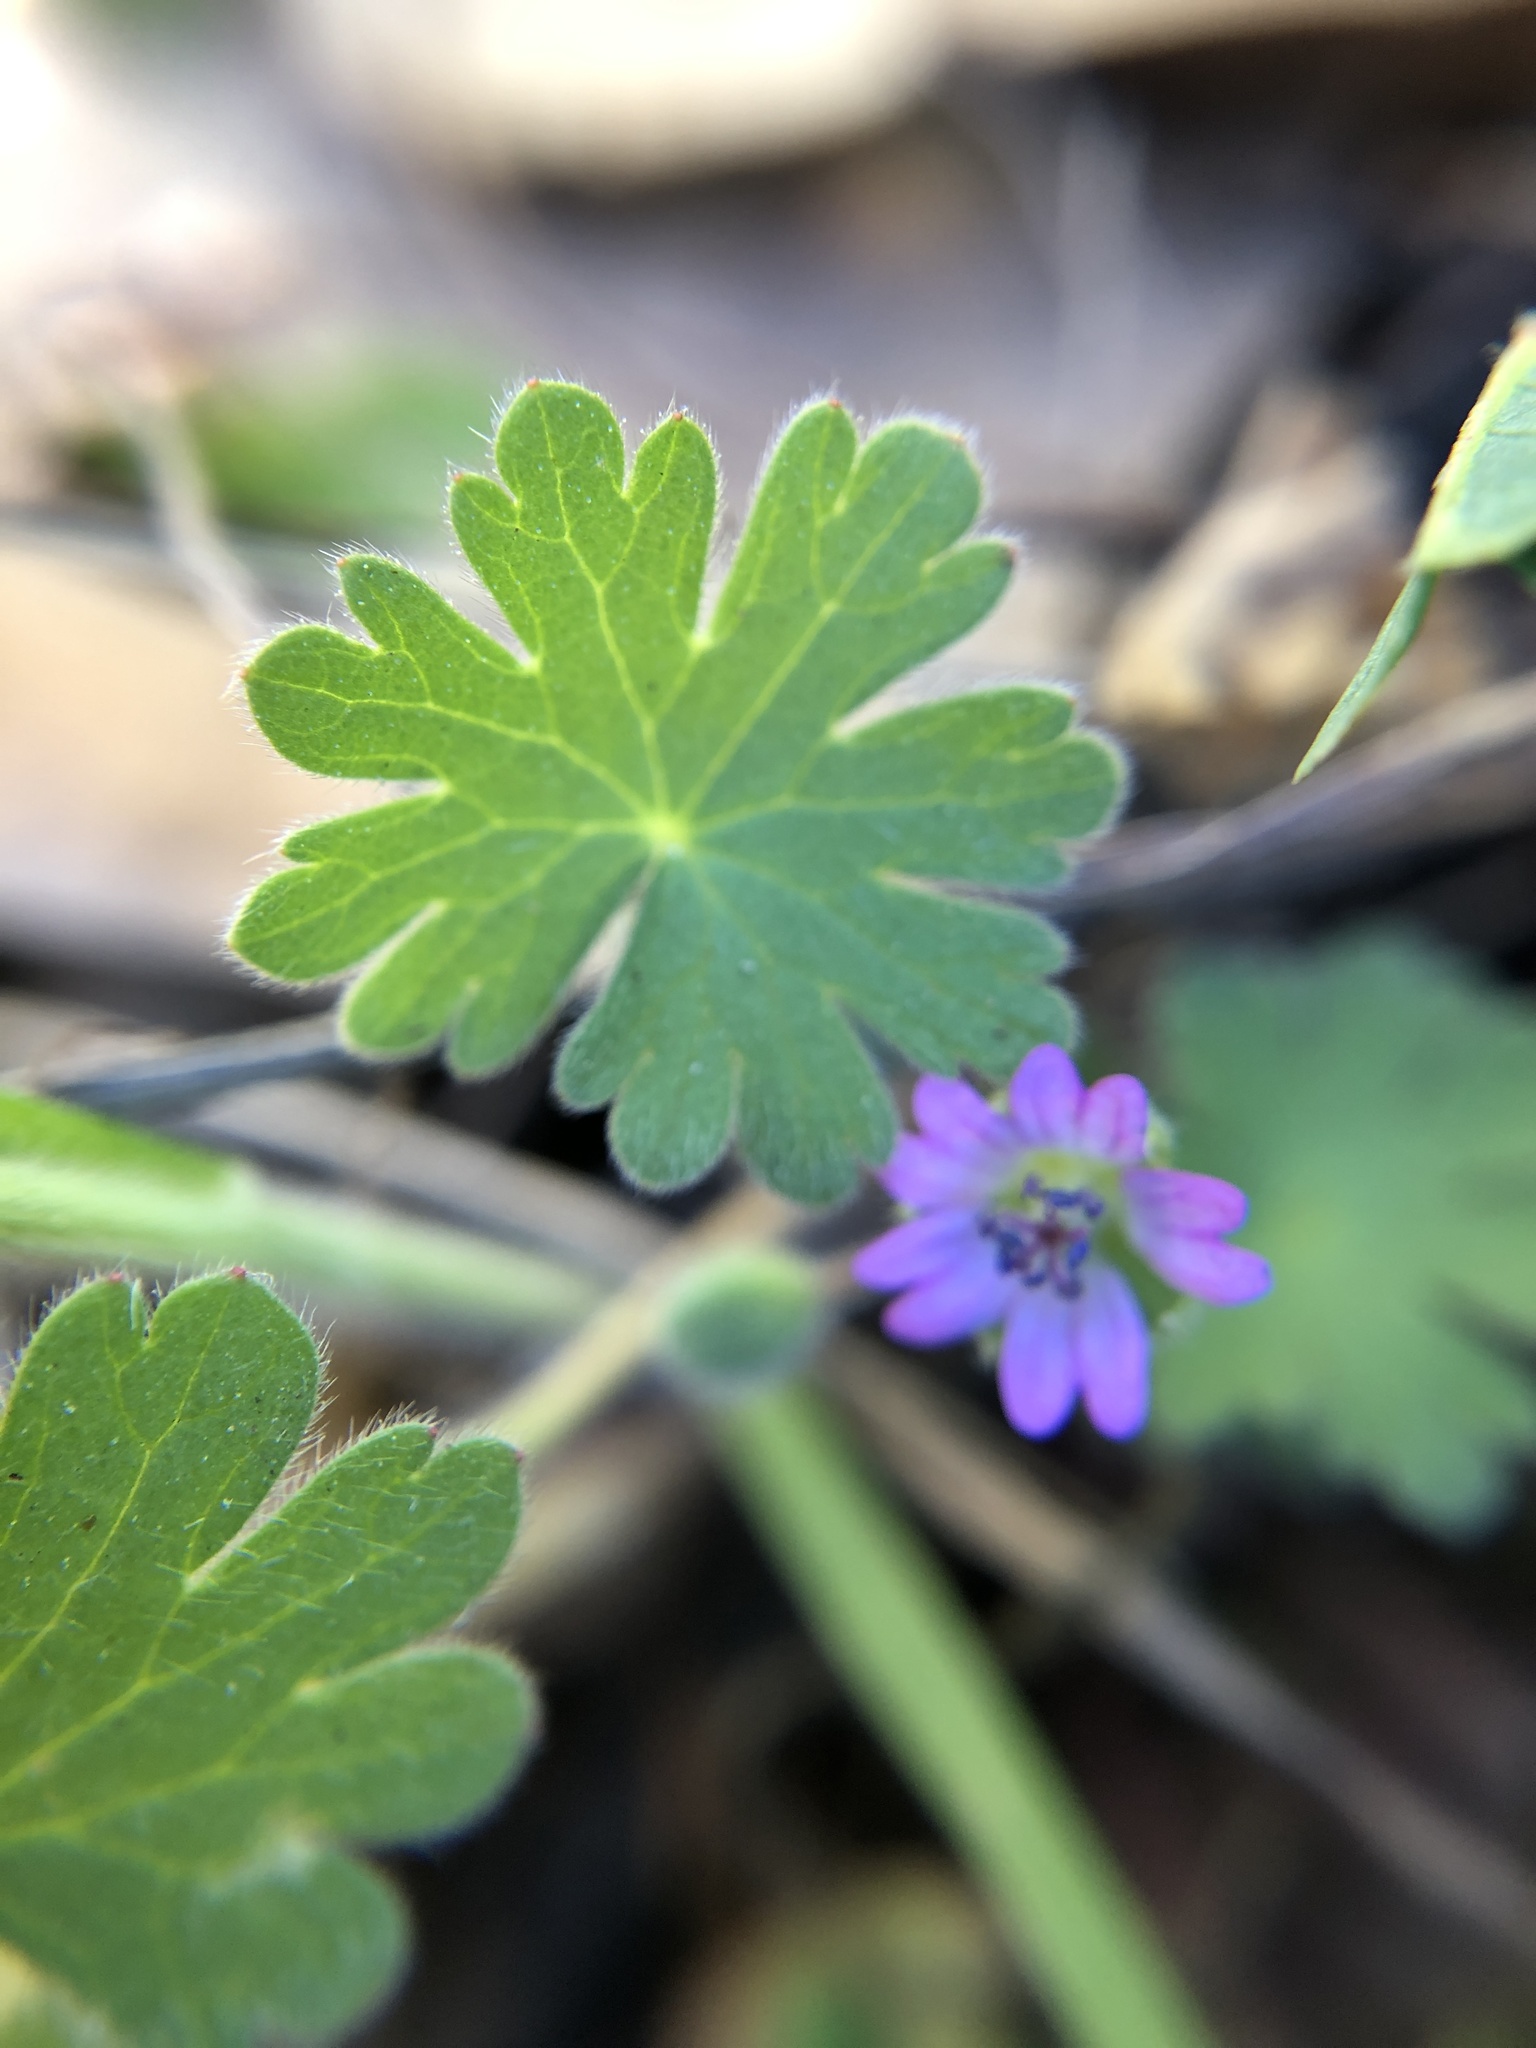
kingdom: Plantae
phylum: Tracheophyta
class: Magnoliopsida
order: Geraniales
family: Geraniaceae
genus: Geranium
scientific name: Geranium molle
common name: Dove's-foot crane's-bill
